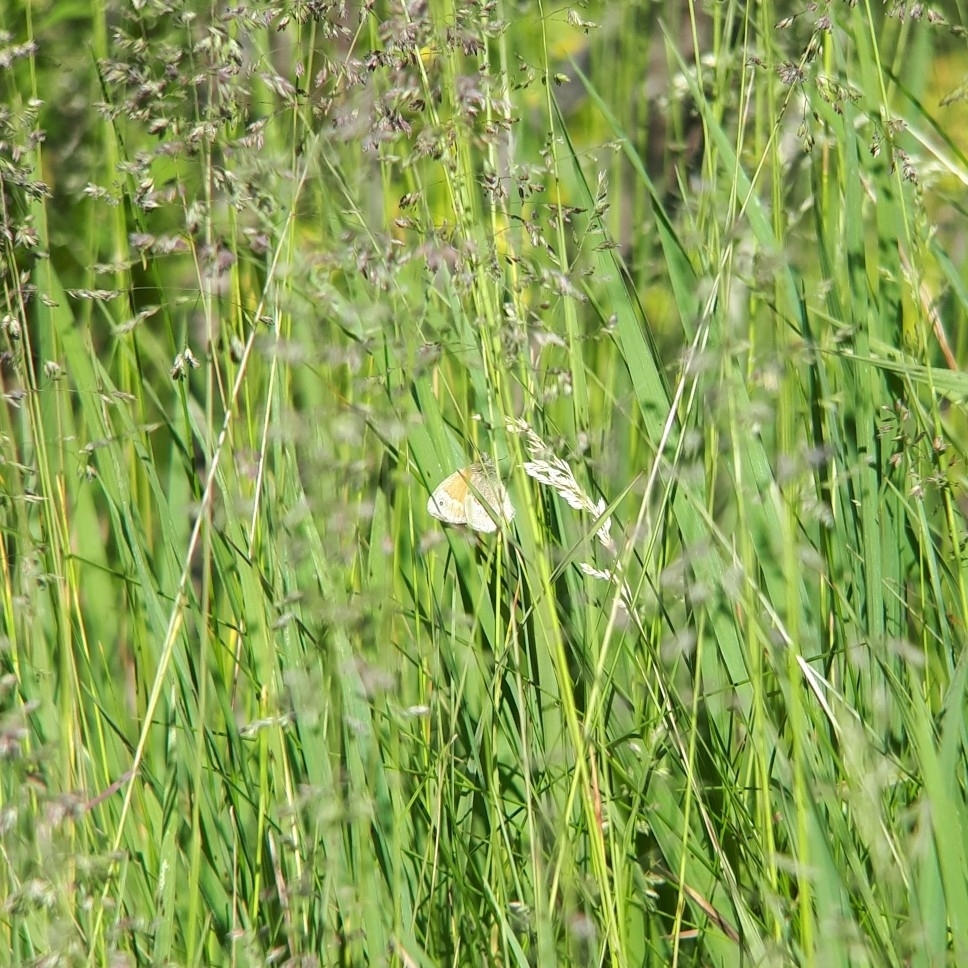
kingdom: Animalia
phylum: Arthropoda
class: Insecta
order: Lepidoptera
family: Nymphalidae
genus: Coenonympha
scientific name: Coenonympha california
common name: Common ringlet
